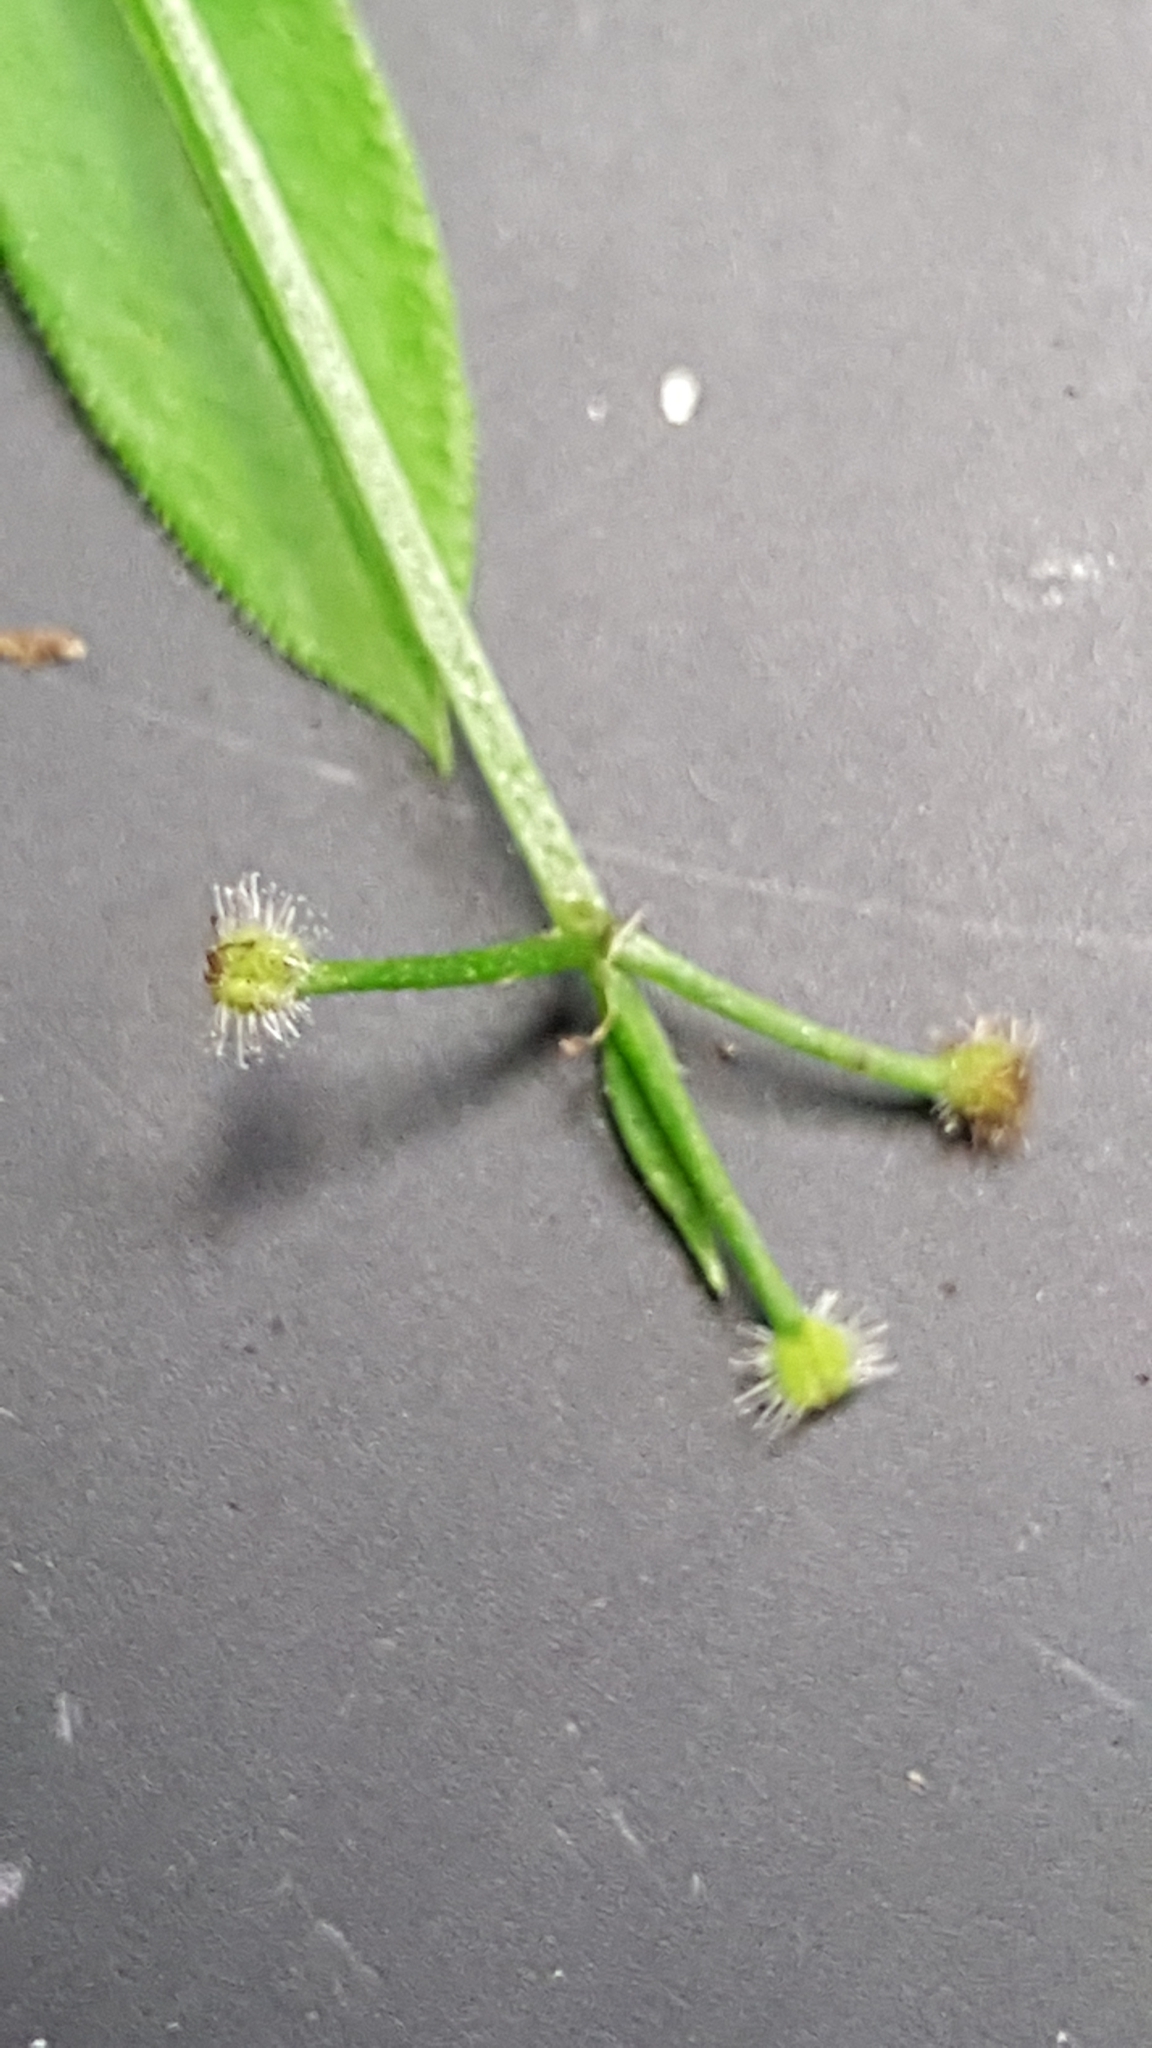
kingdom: Plantae
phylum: Tracheophyta
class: Magnoliopsida
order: Gentianales
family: Rubiaceae
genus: Galium
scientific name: Galium triflorum
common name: Fragrant bedstraw
